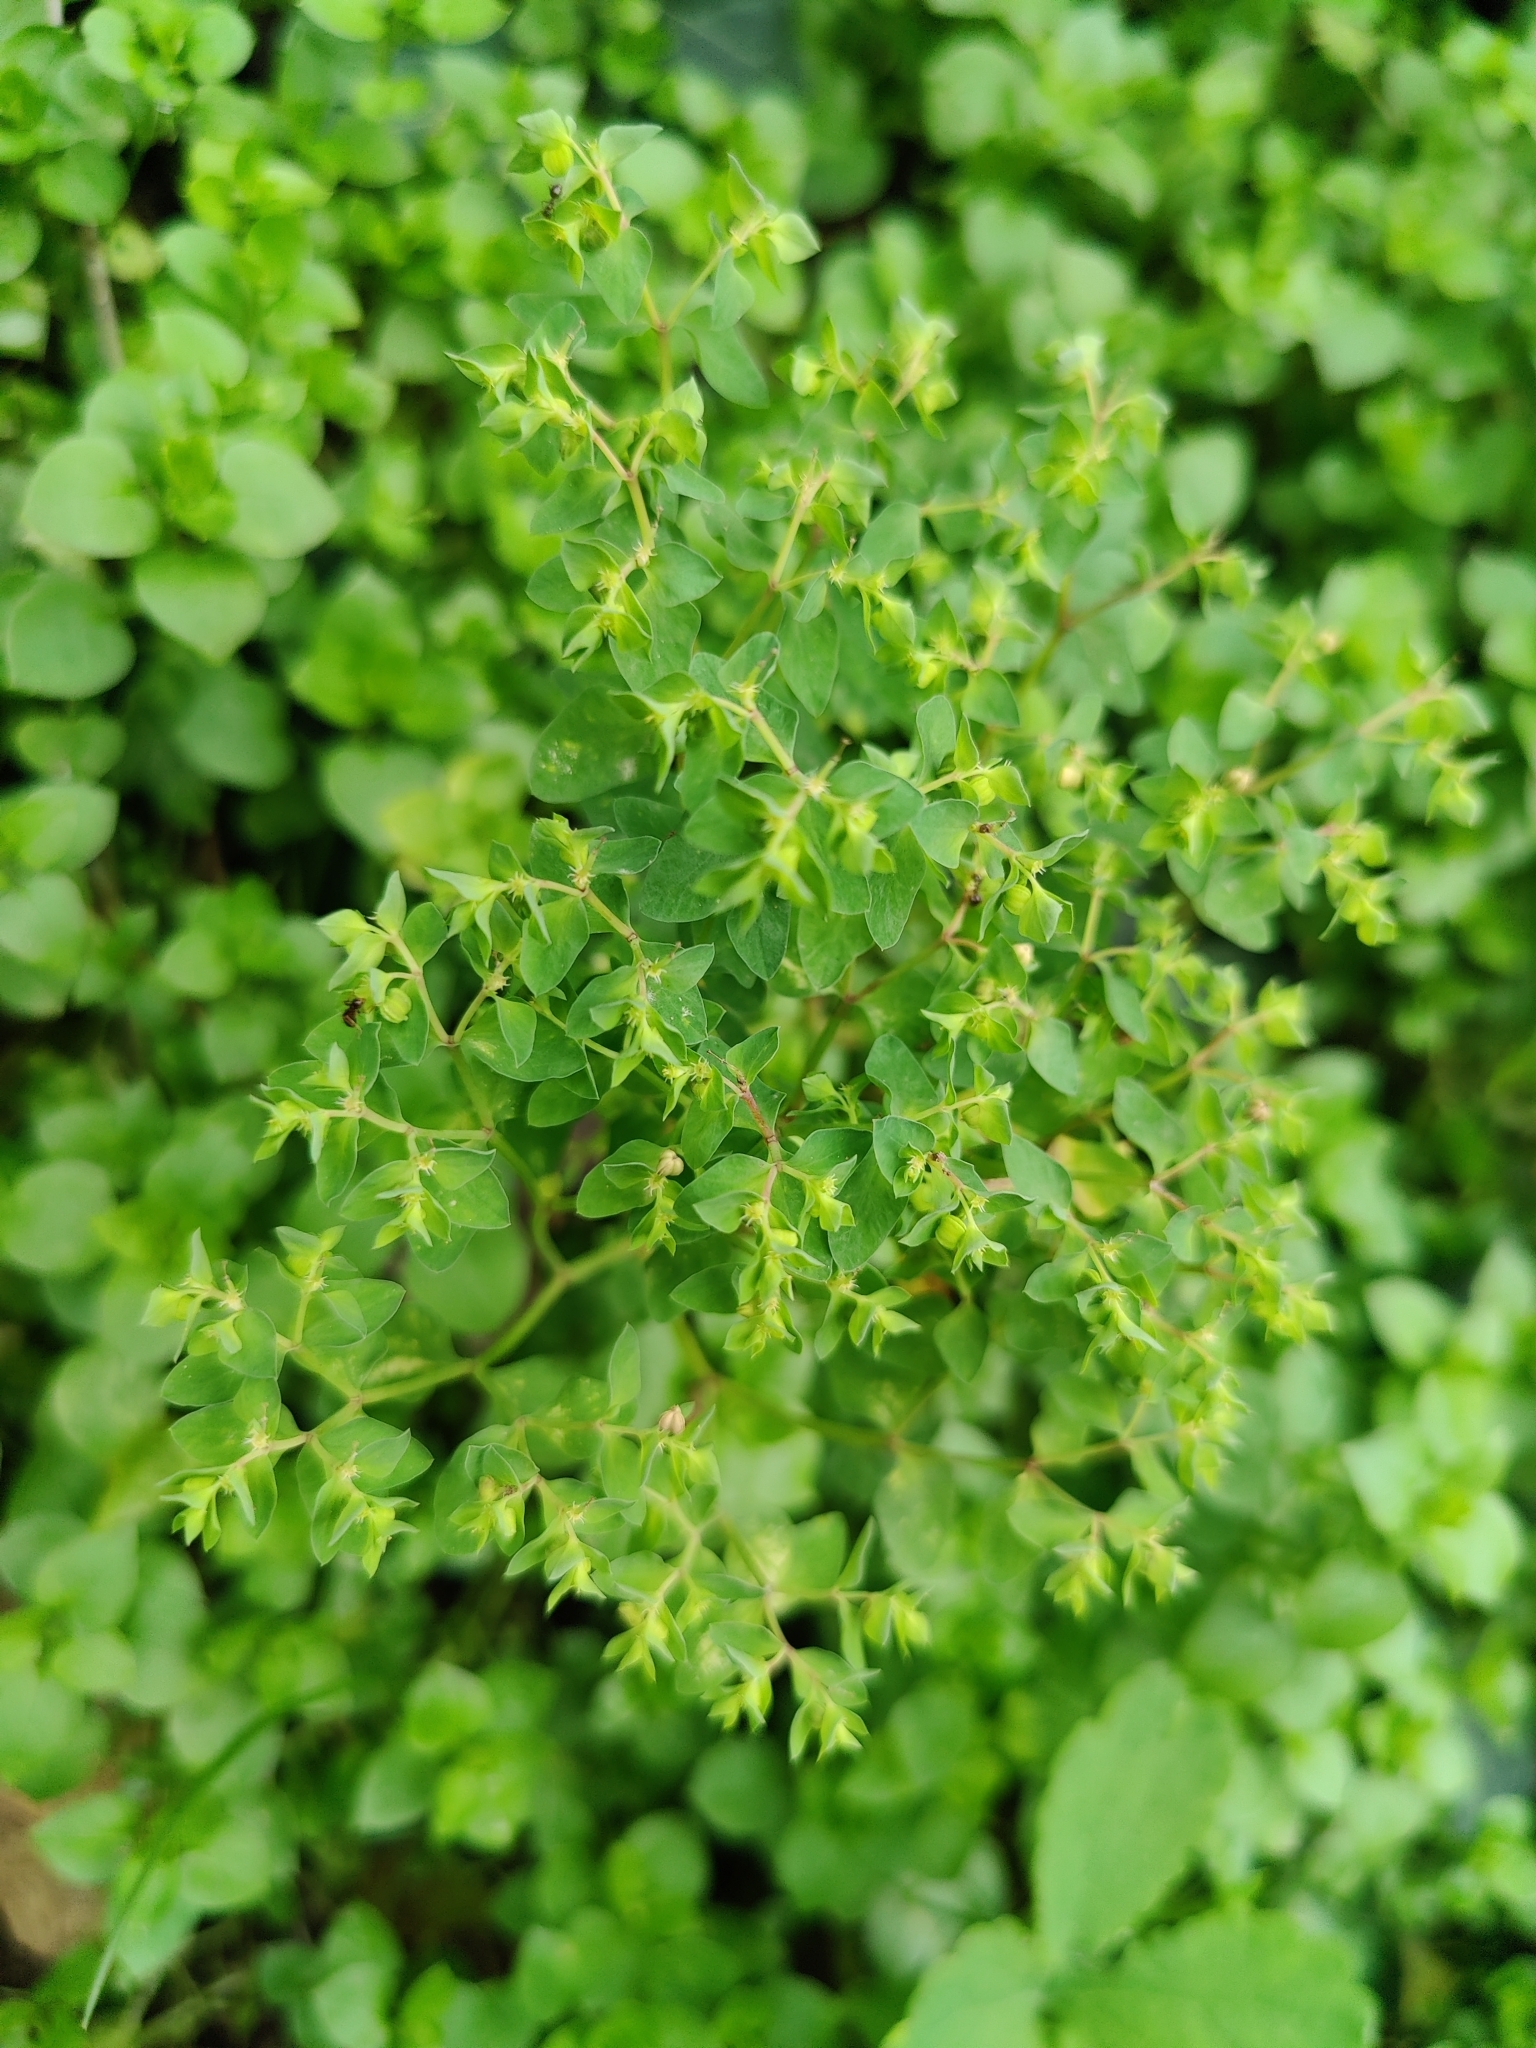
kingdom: Plantae
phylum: Tracheophyta
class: Magnoliopsida
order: Malpighiales
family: Euphorbiaceae
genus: Euphorbia
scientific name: Euphorbia peplus
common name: Petty spurge
